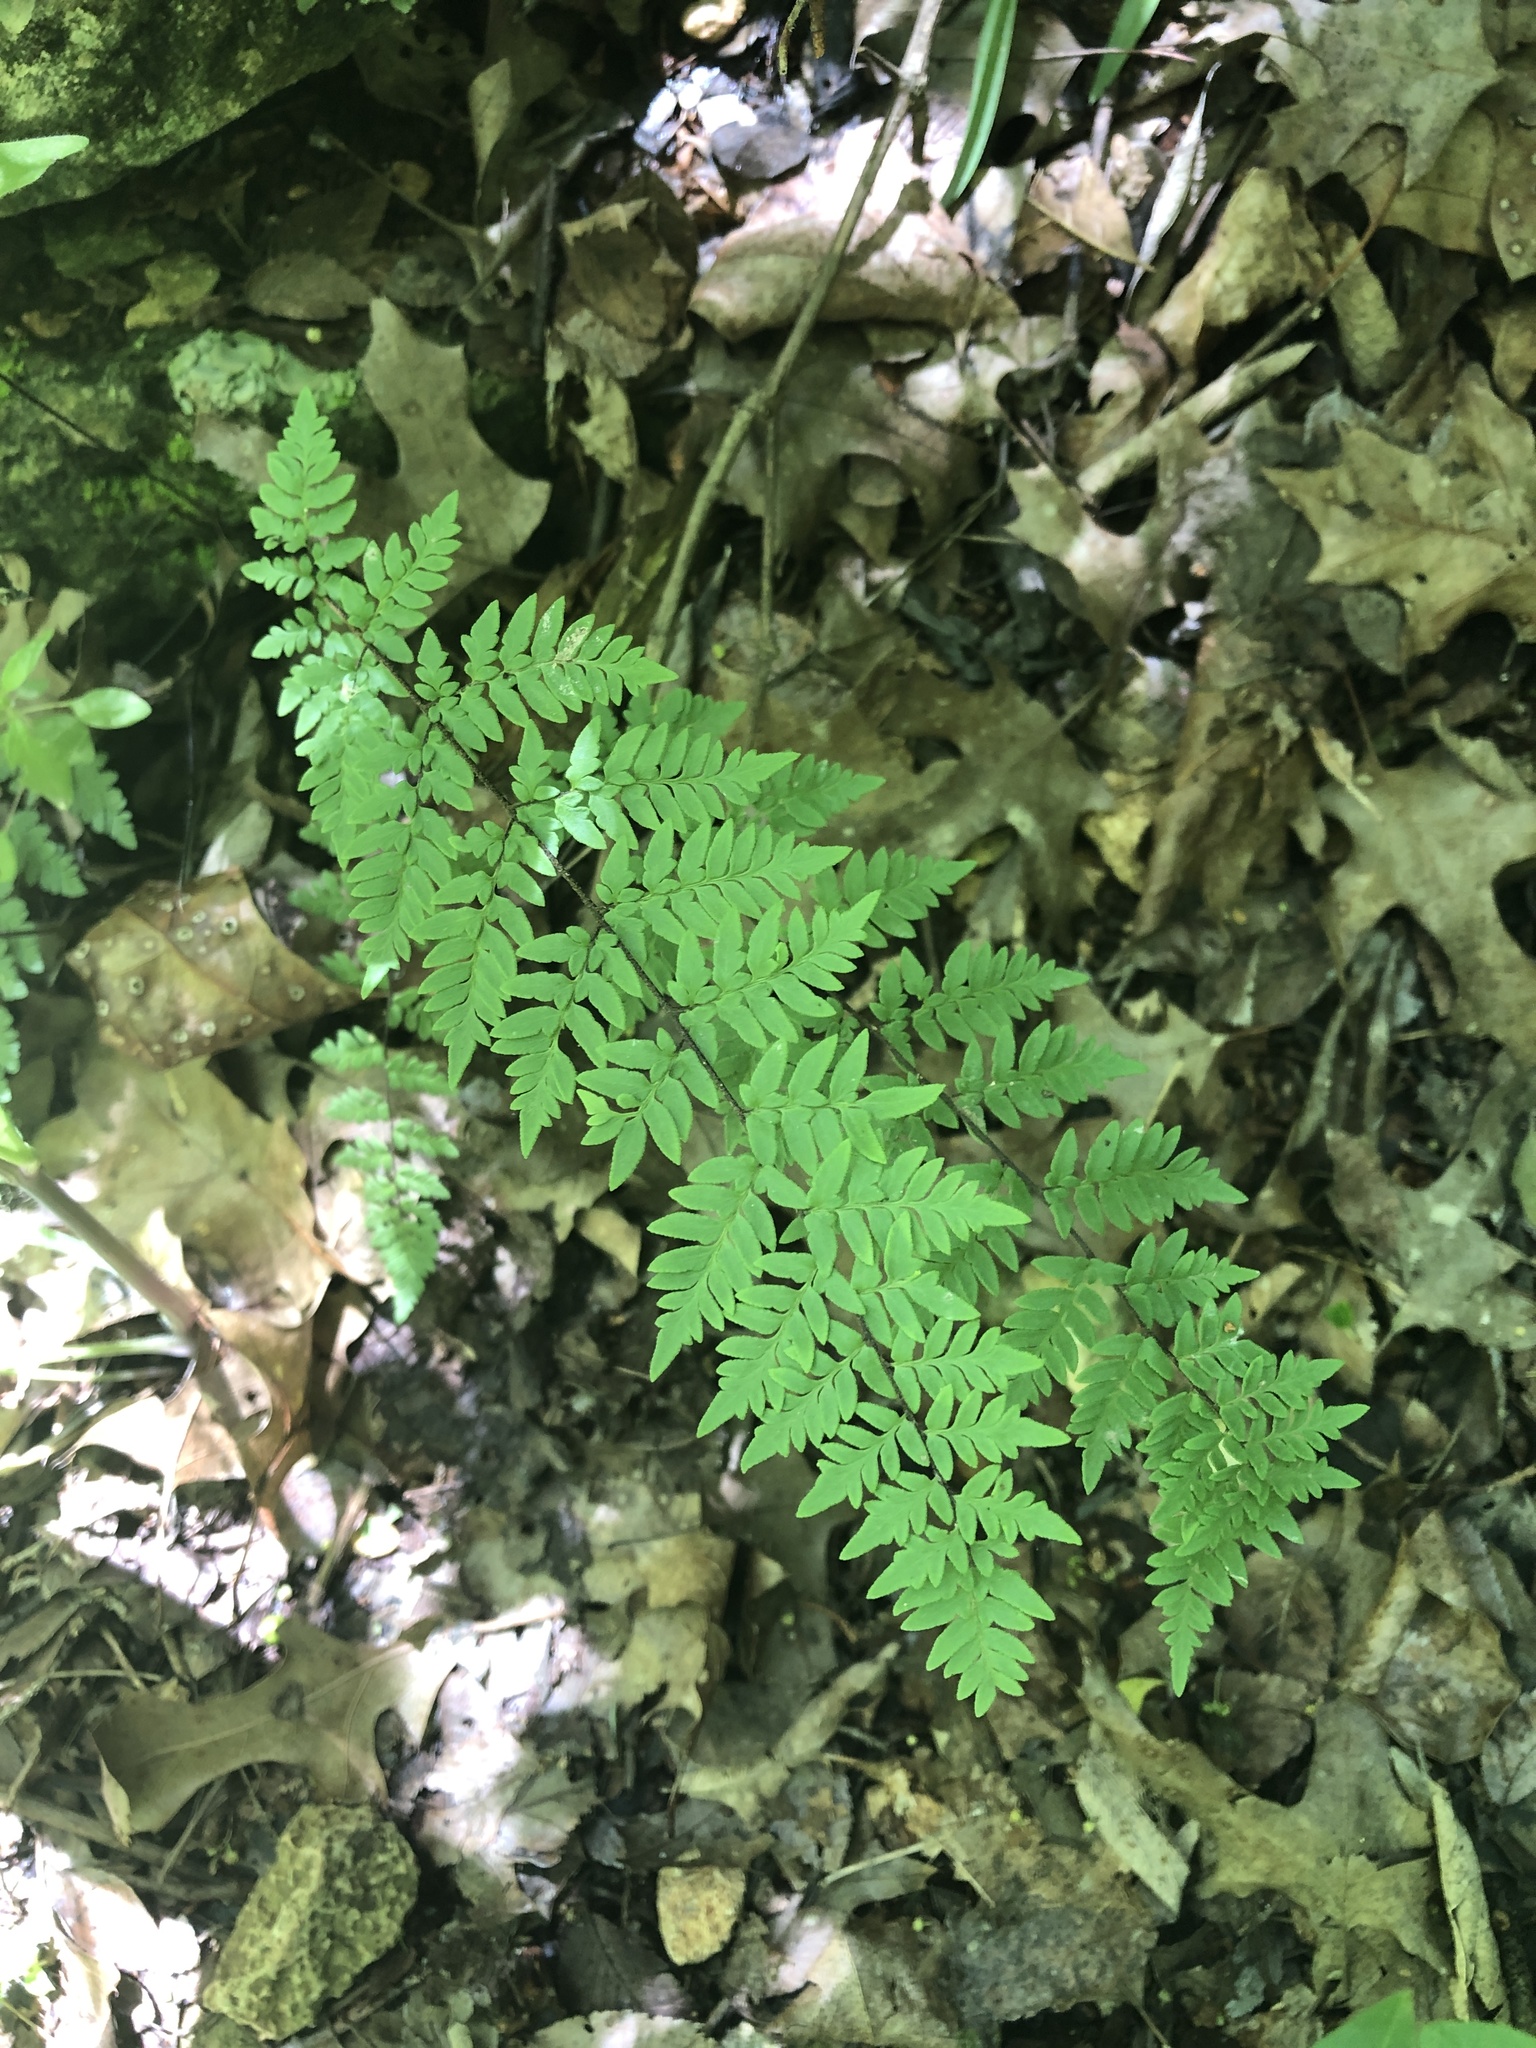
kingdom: Plantae
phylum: Tracheophyta
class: Polypodiopsida
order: Polypodiales
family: Pteridaceae
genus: Myriopteris
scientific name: Myriopteris alabamensis
